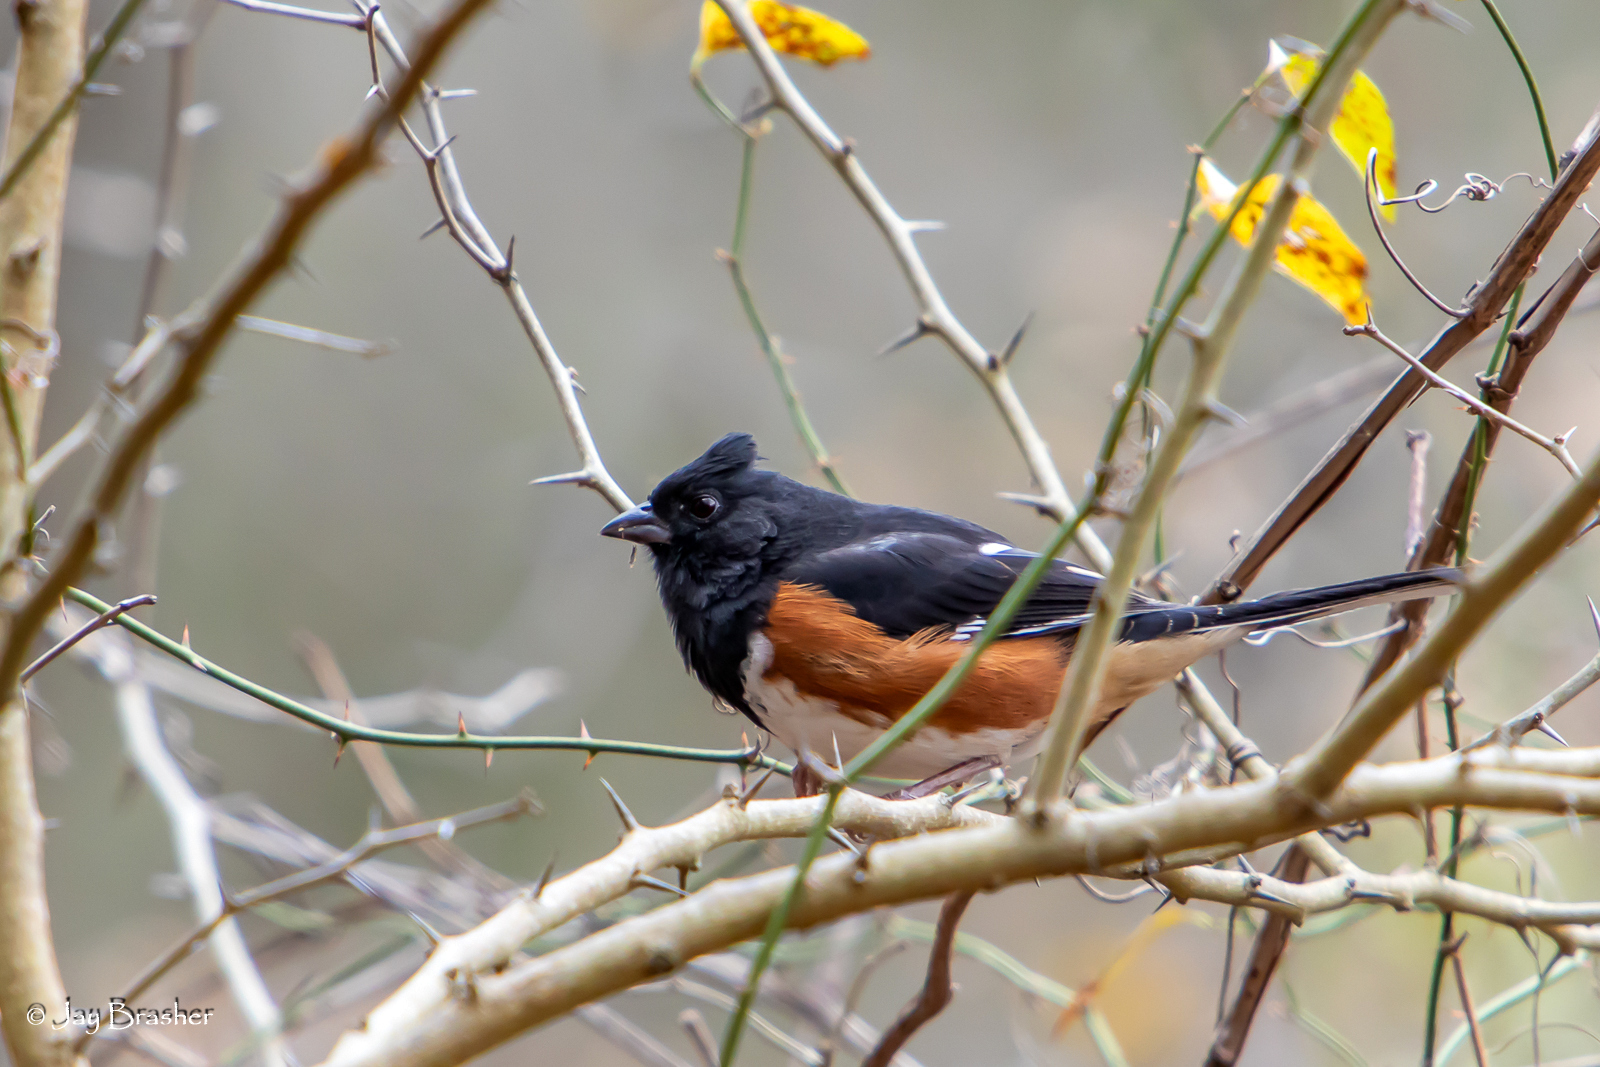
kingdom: Animalia
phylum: Chordata
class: Aves
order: Passeriformes
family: Passerellidae
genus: Pipilo
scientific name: Pipilo erythrophthalmus
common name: Eastern towhee
